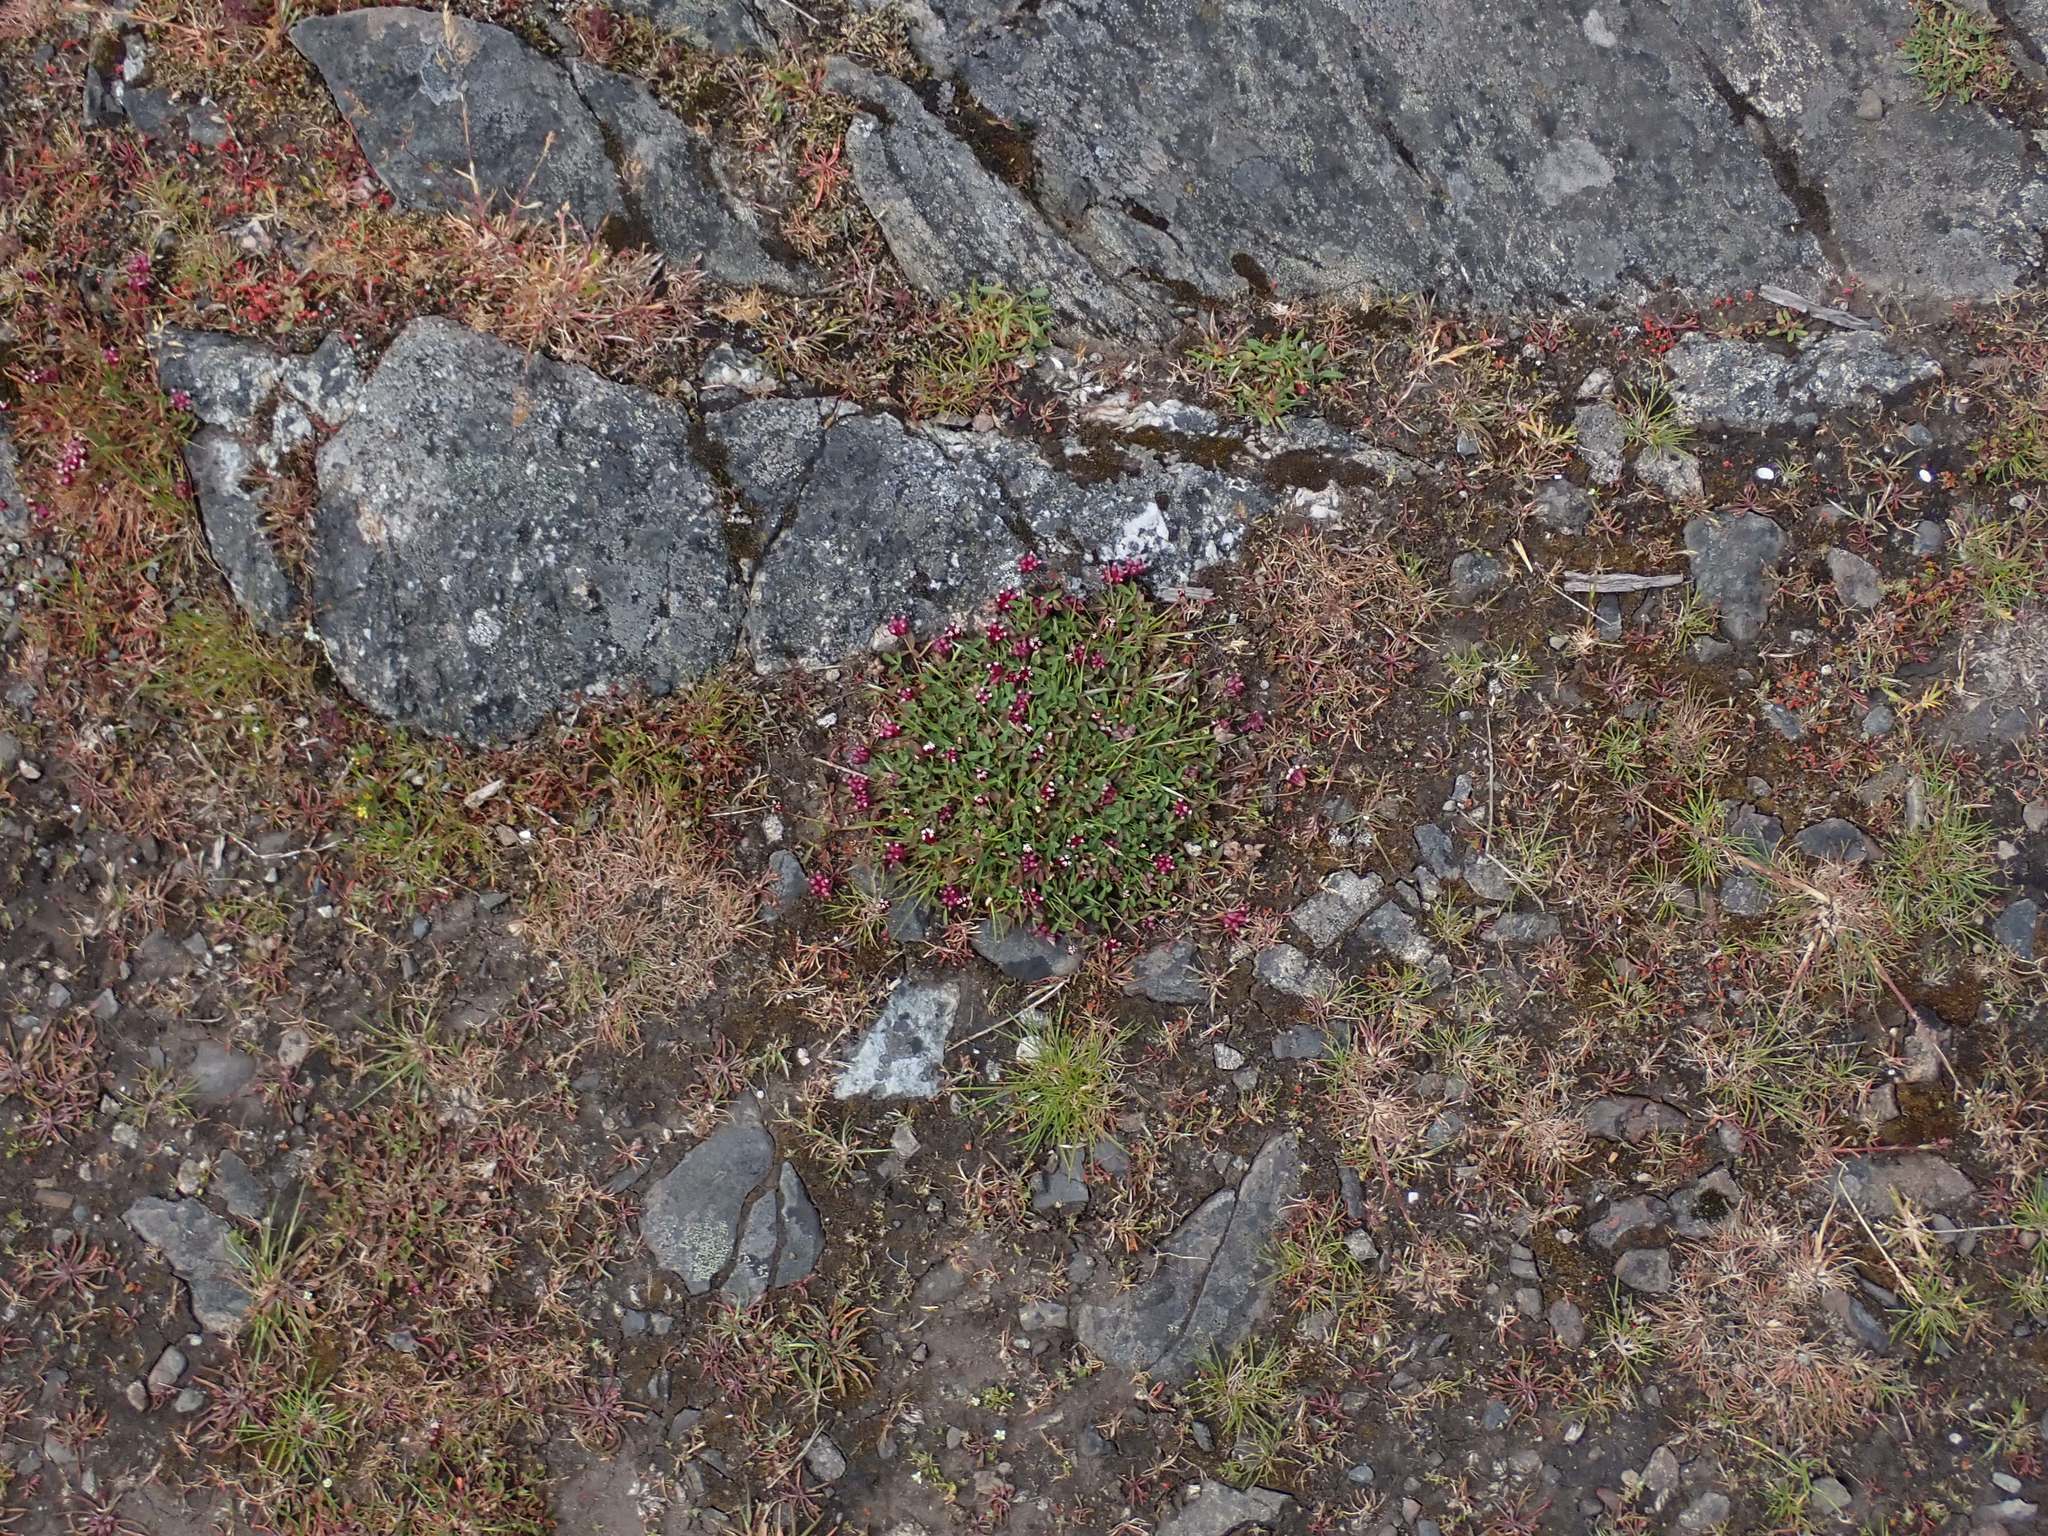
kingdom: Plantae
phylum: Tracheophyta
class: Magnoliopsida
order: Fabales
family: Fabaceae
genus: Trifolium
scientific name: Trifolium depauperatum
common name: Poverty clover
